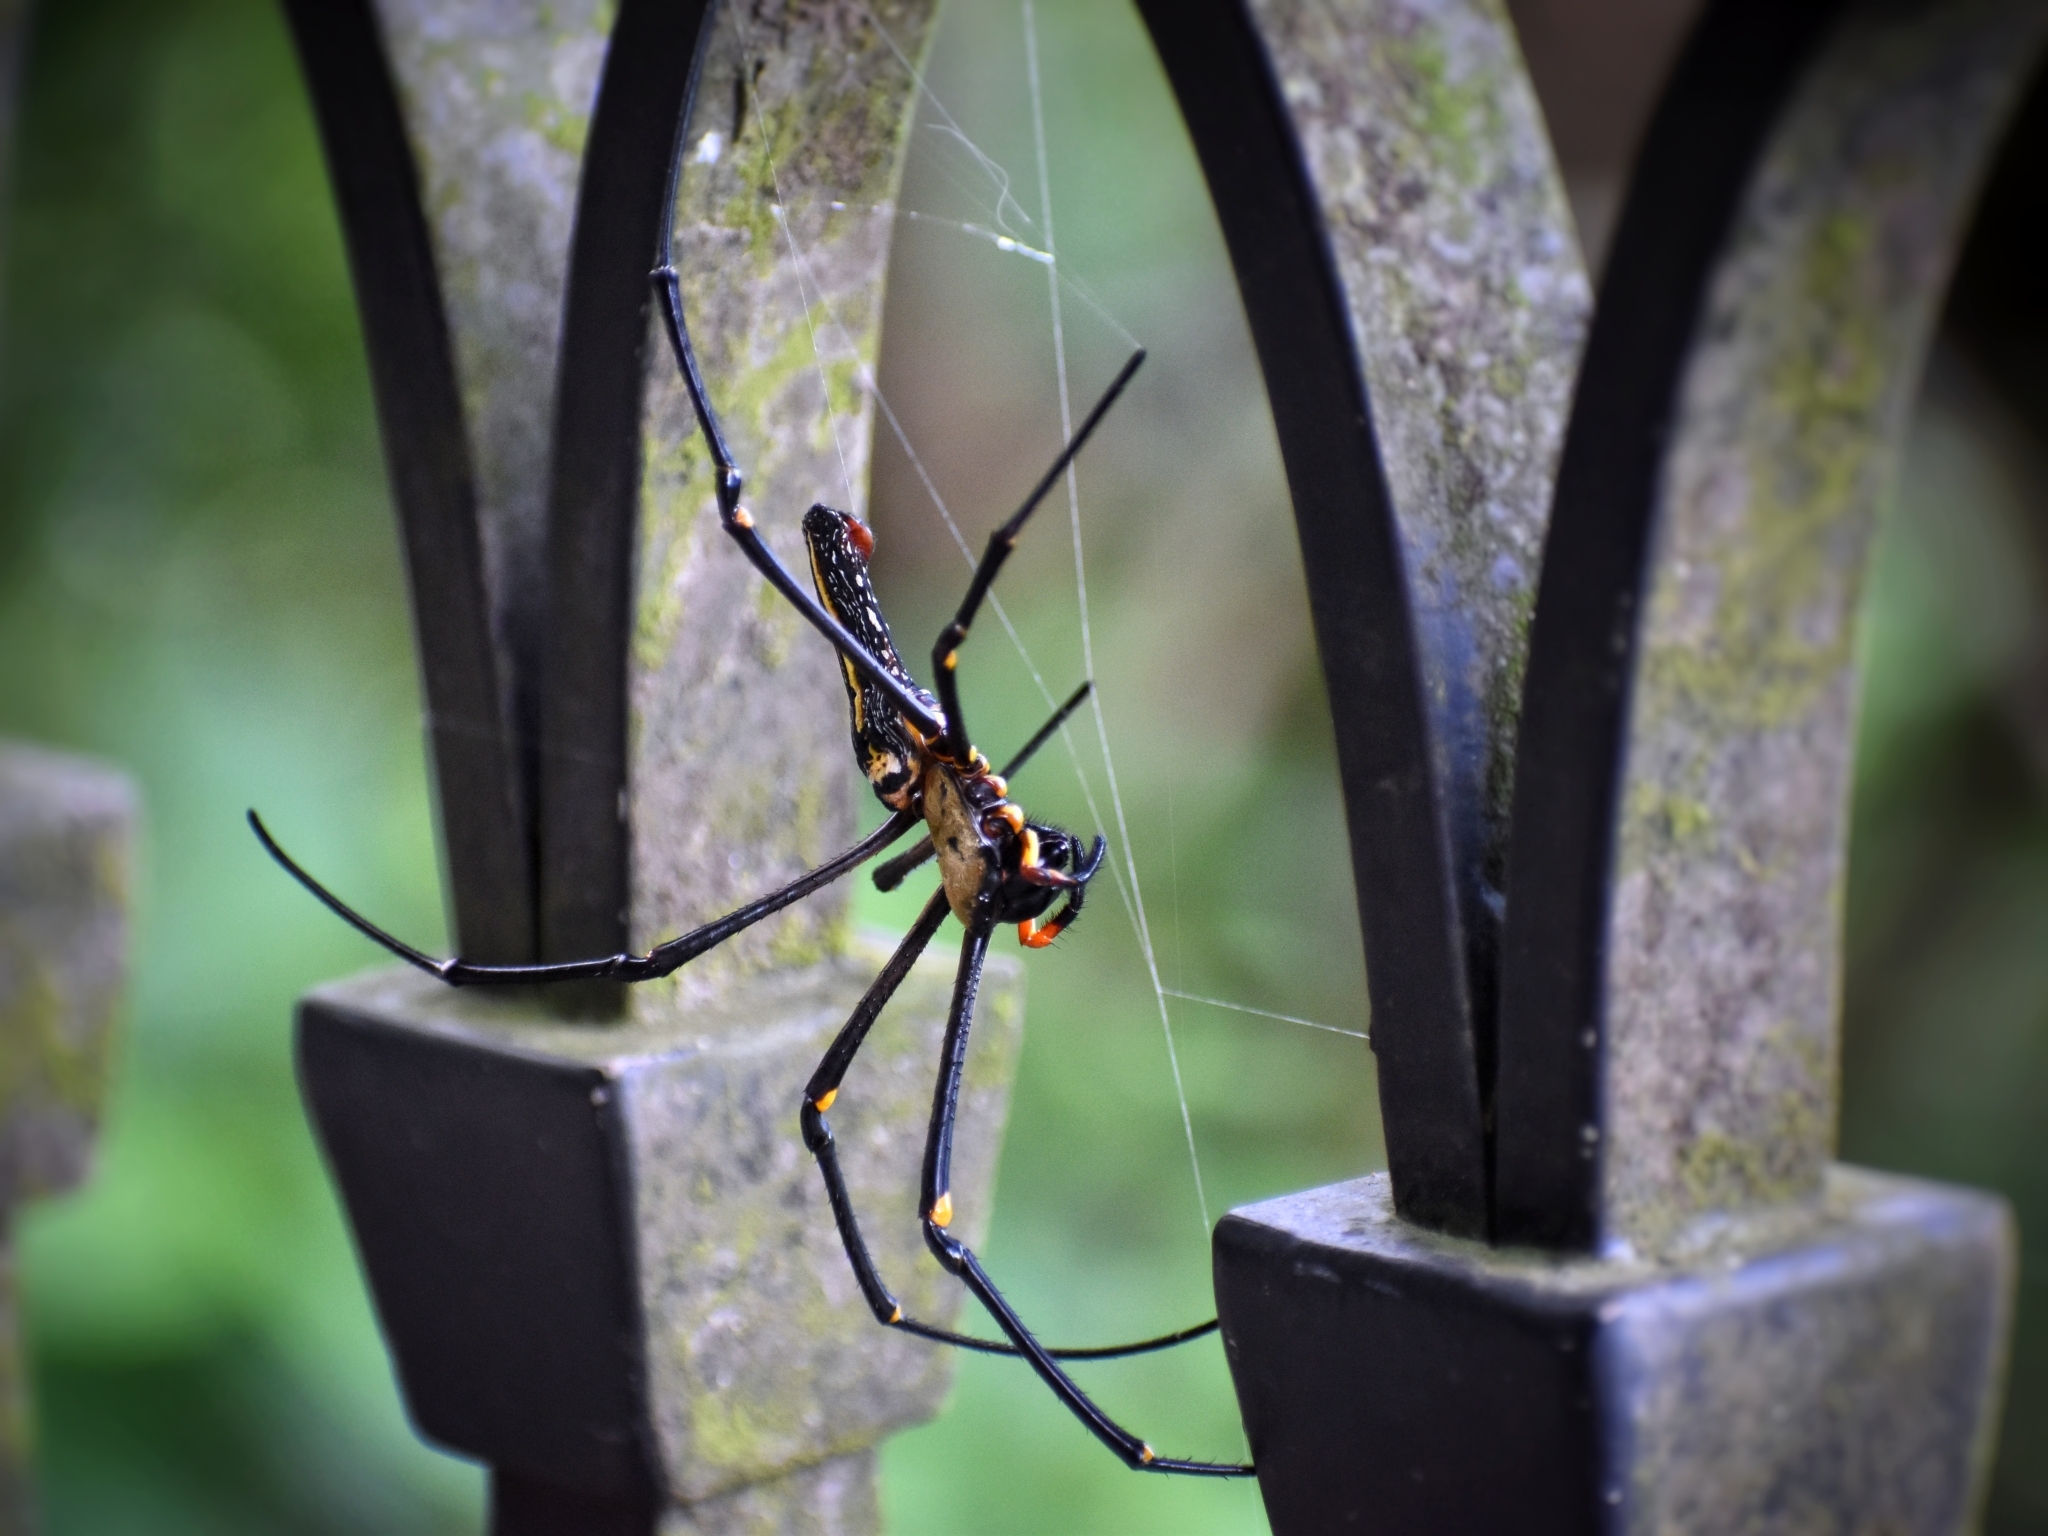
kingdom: Animalia
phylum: Arthropoda
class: Arachnida
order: Araneae
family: Araneidae
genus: Nephila
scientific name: Nephila pilipes
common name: Giant golden orb weaver
